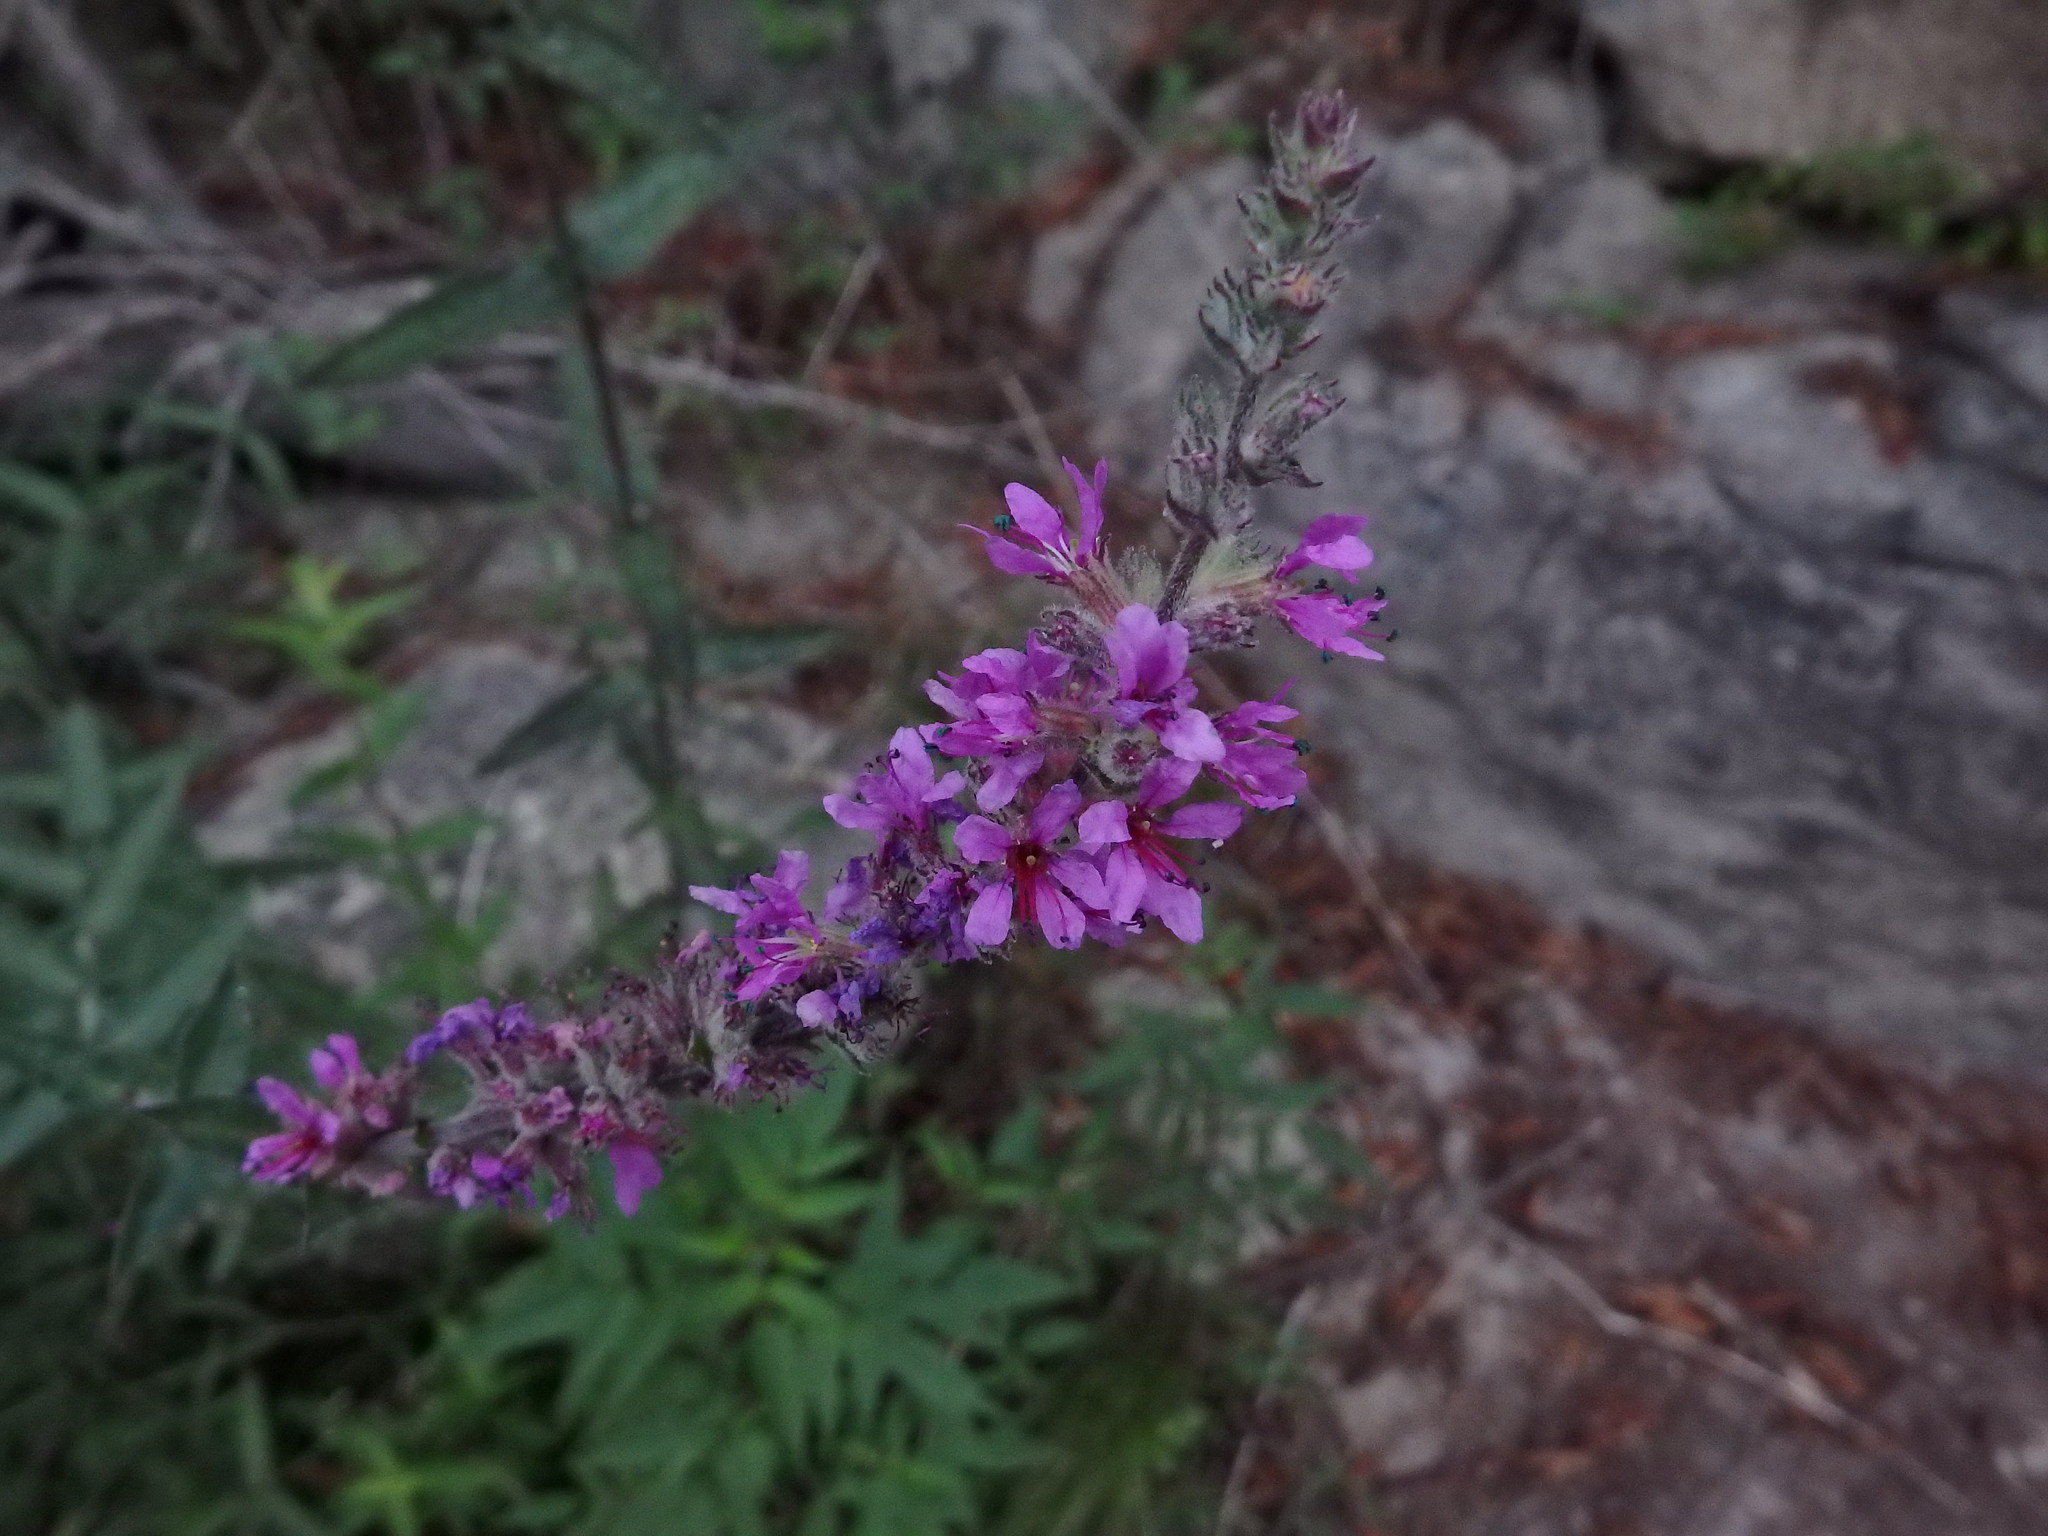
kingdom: Plantae
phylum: Tracheophyta
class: Magnoliopsida
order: Myrtales
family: Lythraceae
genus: Lythrum
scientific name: Lythrum salicaria
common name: Purple loosestrife
